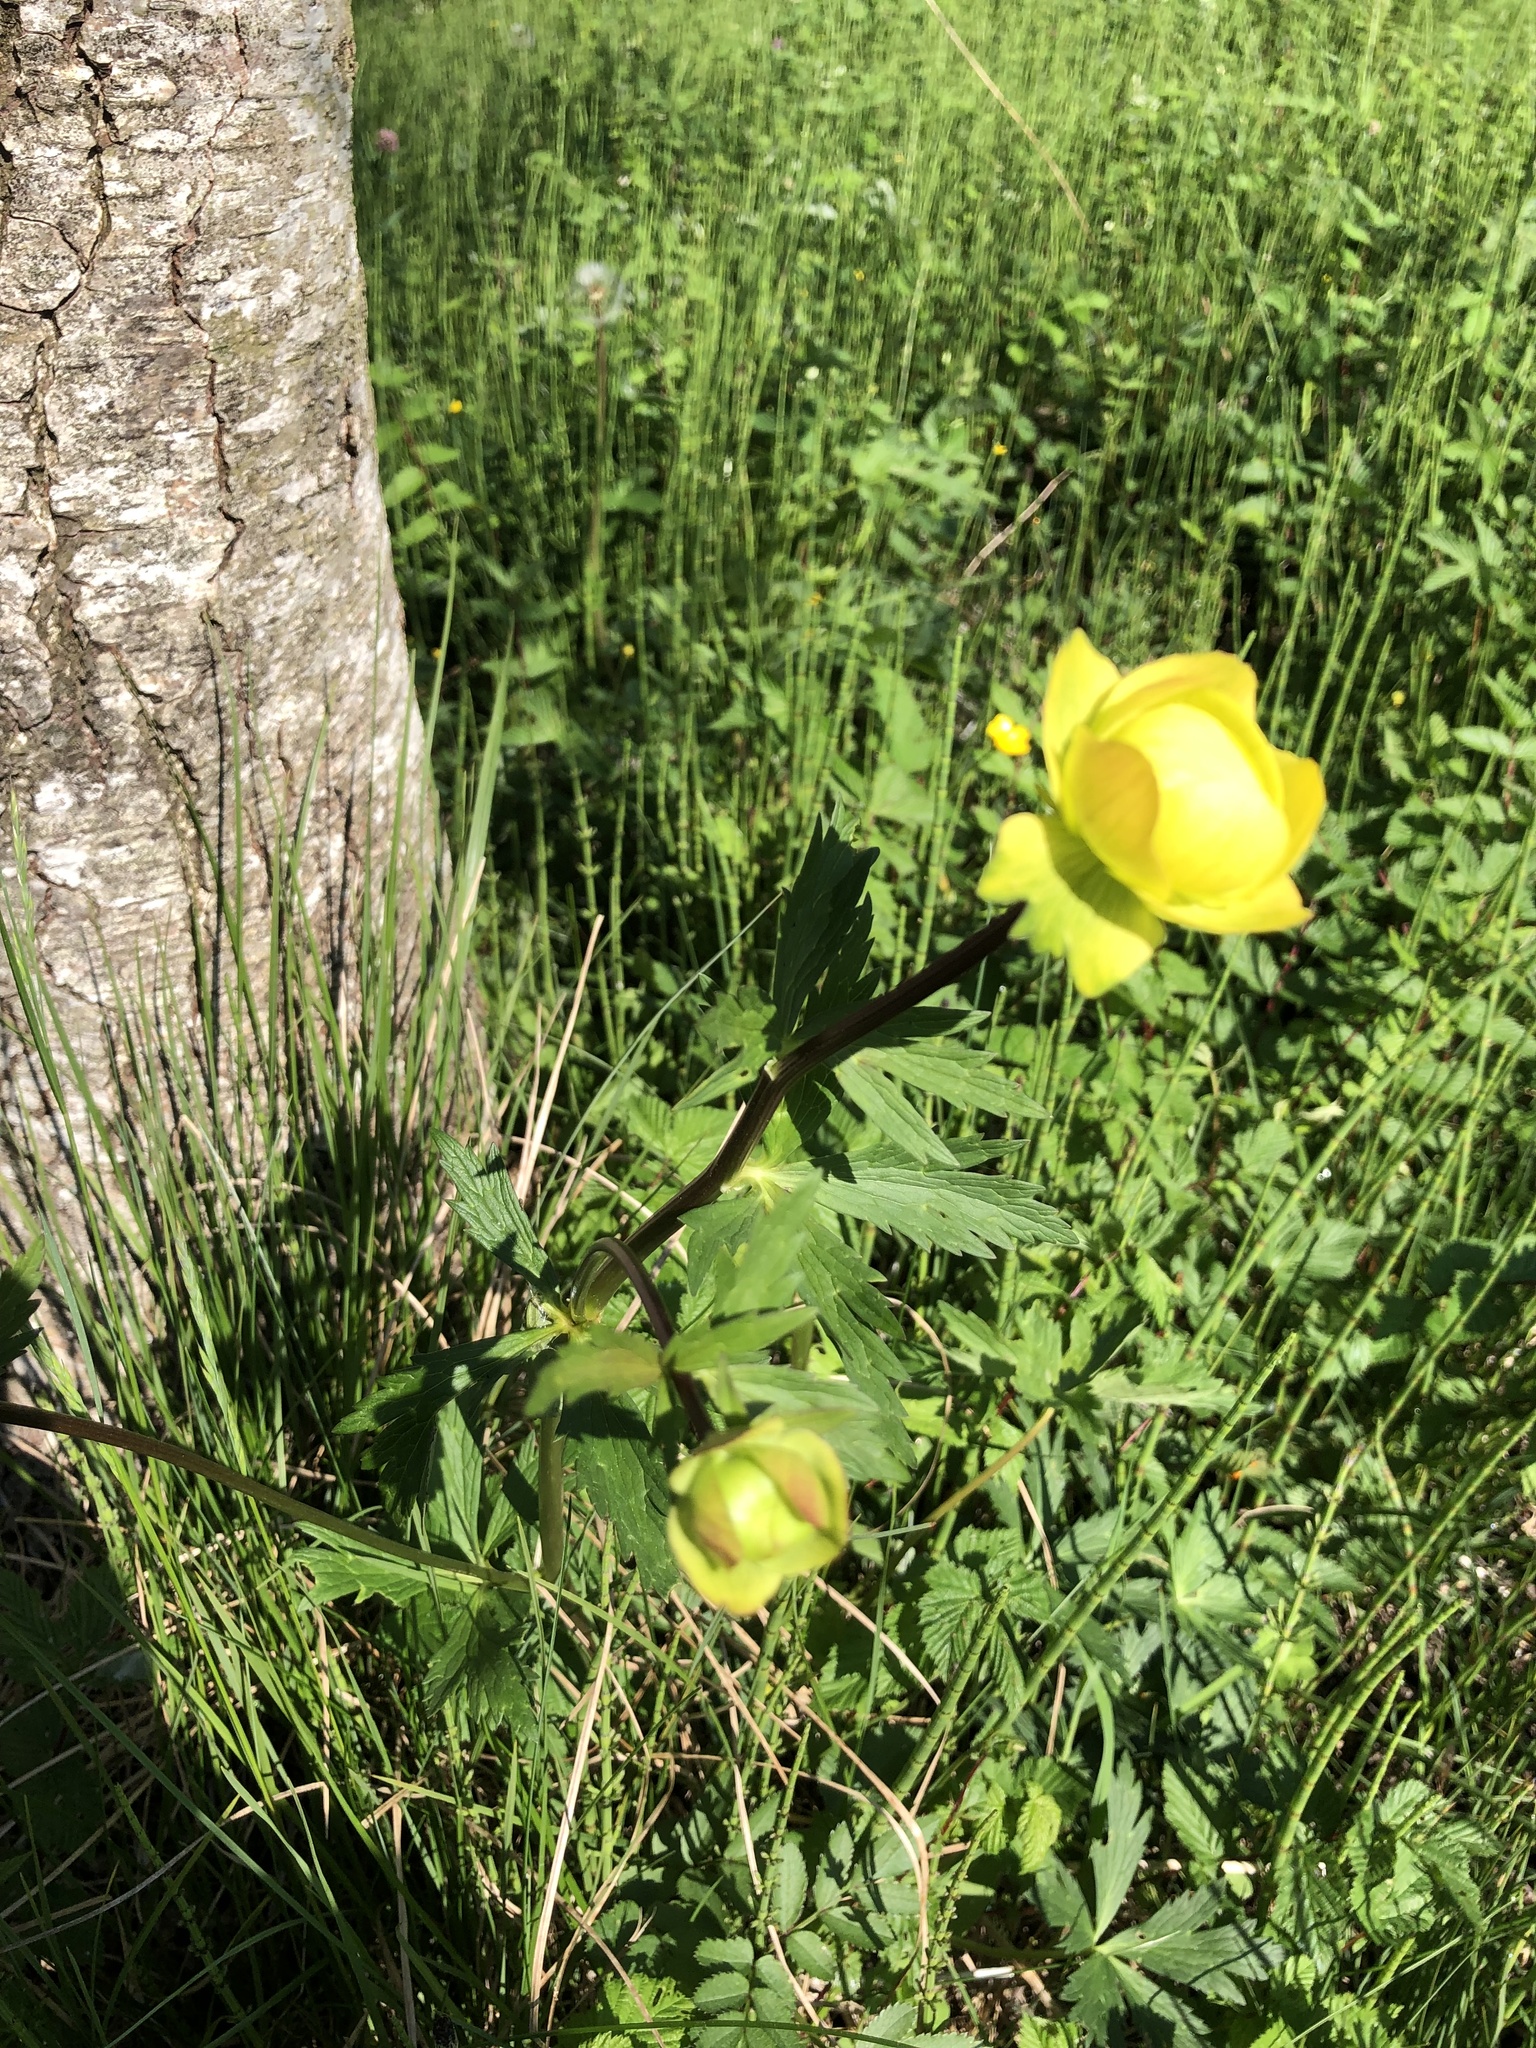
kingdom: Plantae
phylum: Tracheophyta
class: Magnoliopsida
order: Ranunculales
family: Ranunculaceae
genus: Trollius
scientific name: Trollius europaeus
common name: European globeflower
